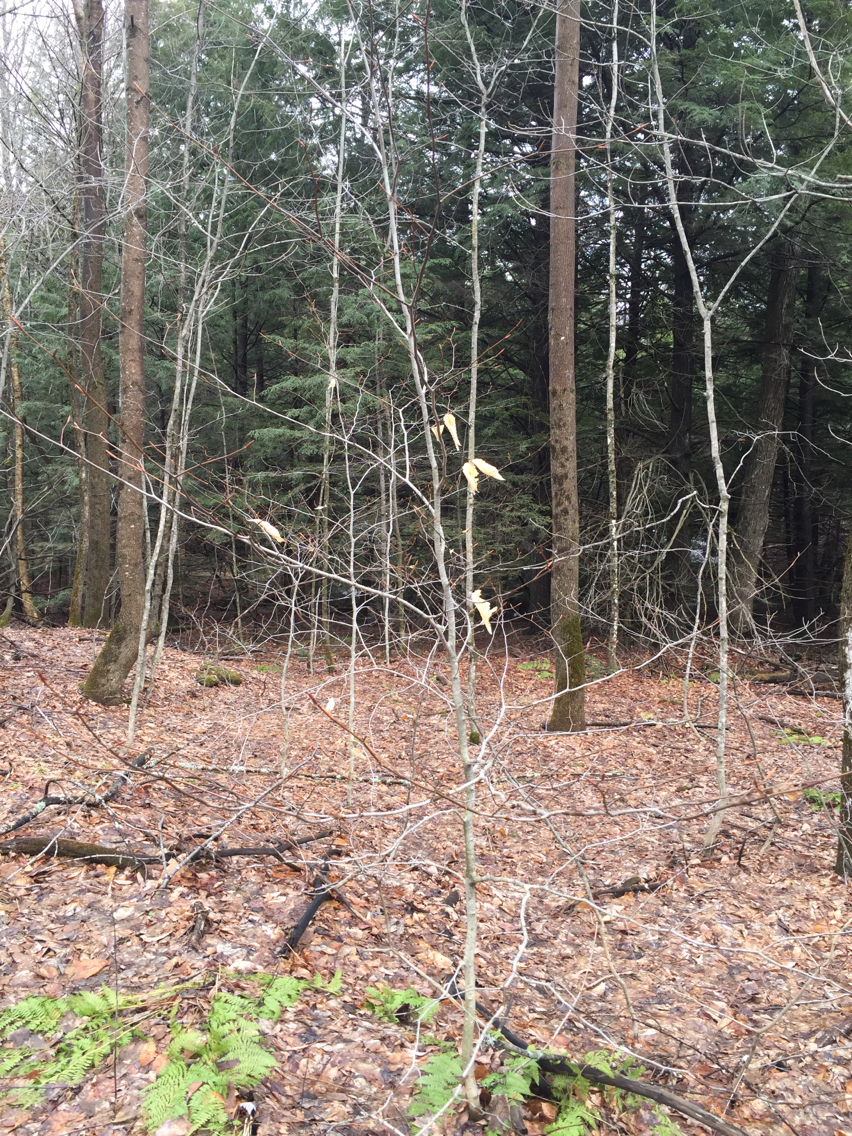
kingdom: Plantae
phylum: Tracheophyta
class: Magnoliopsida
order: Fagales
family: Fagaceae
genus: Fagus
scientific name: Fagus grandifolia
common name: American beech
